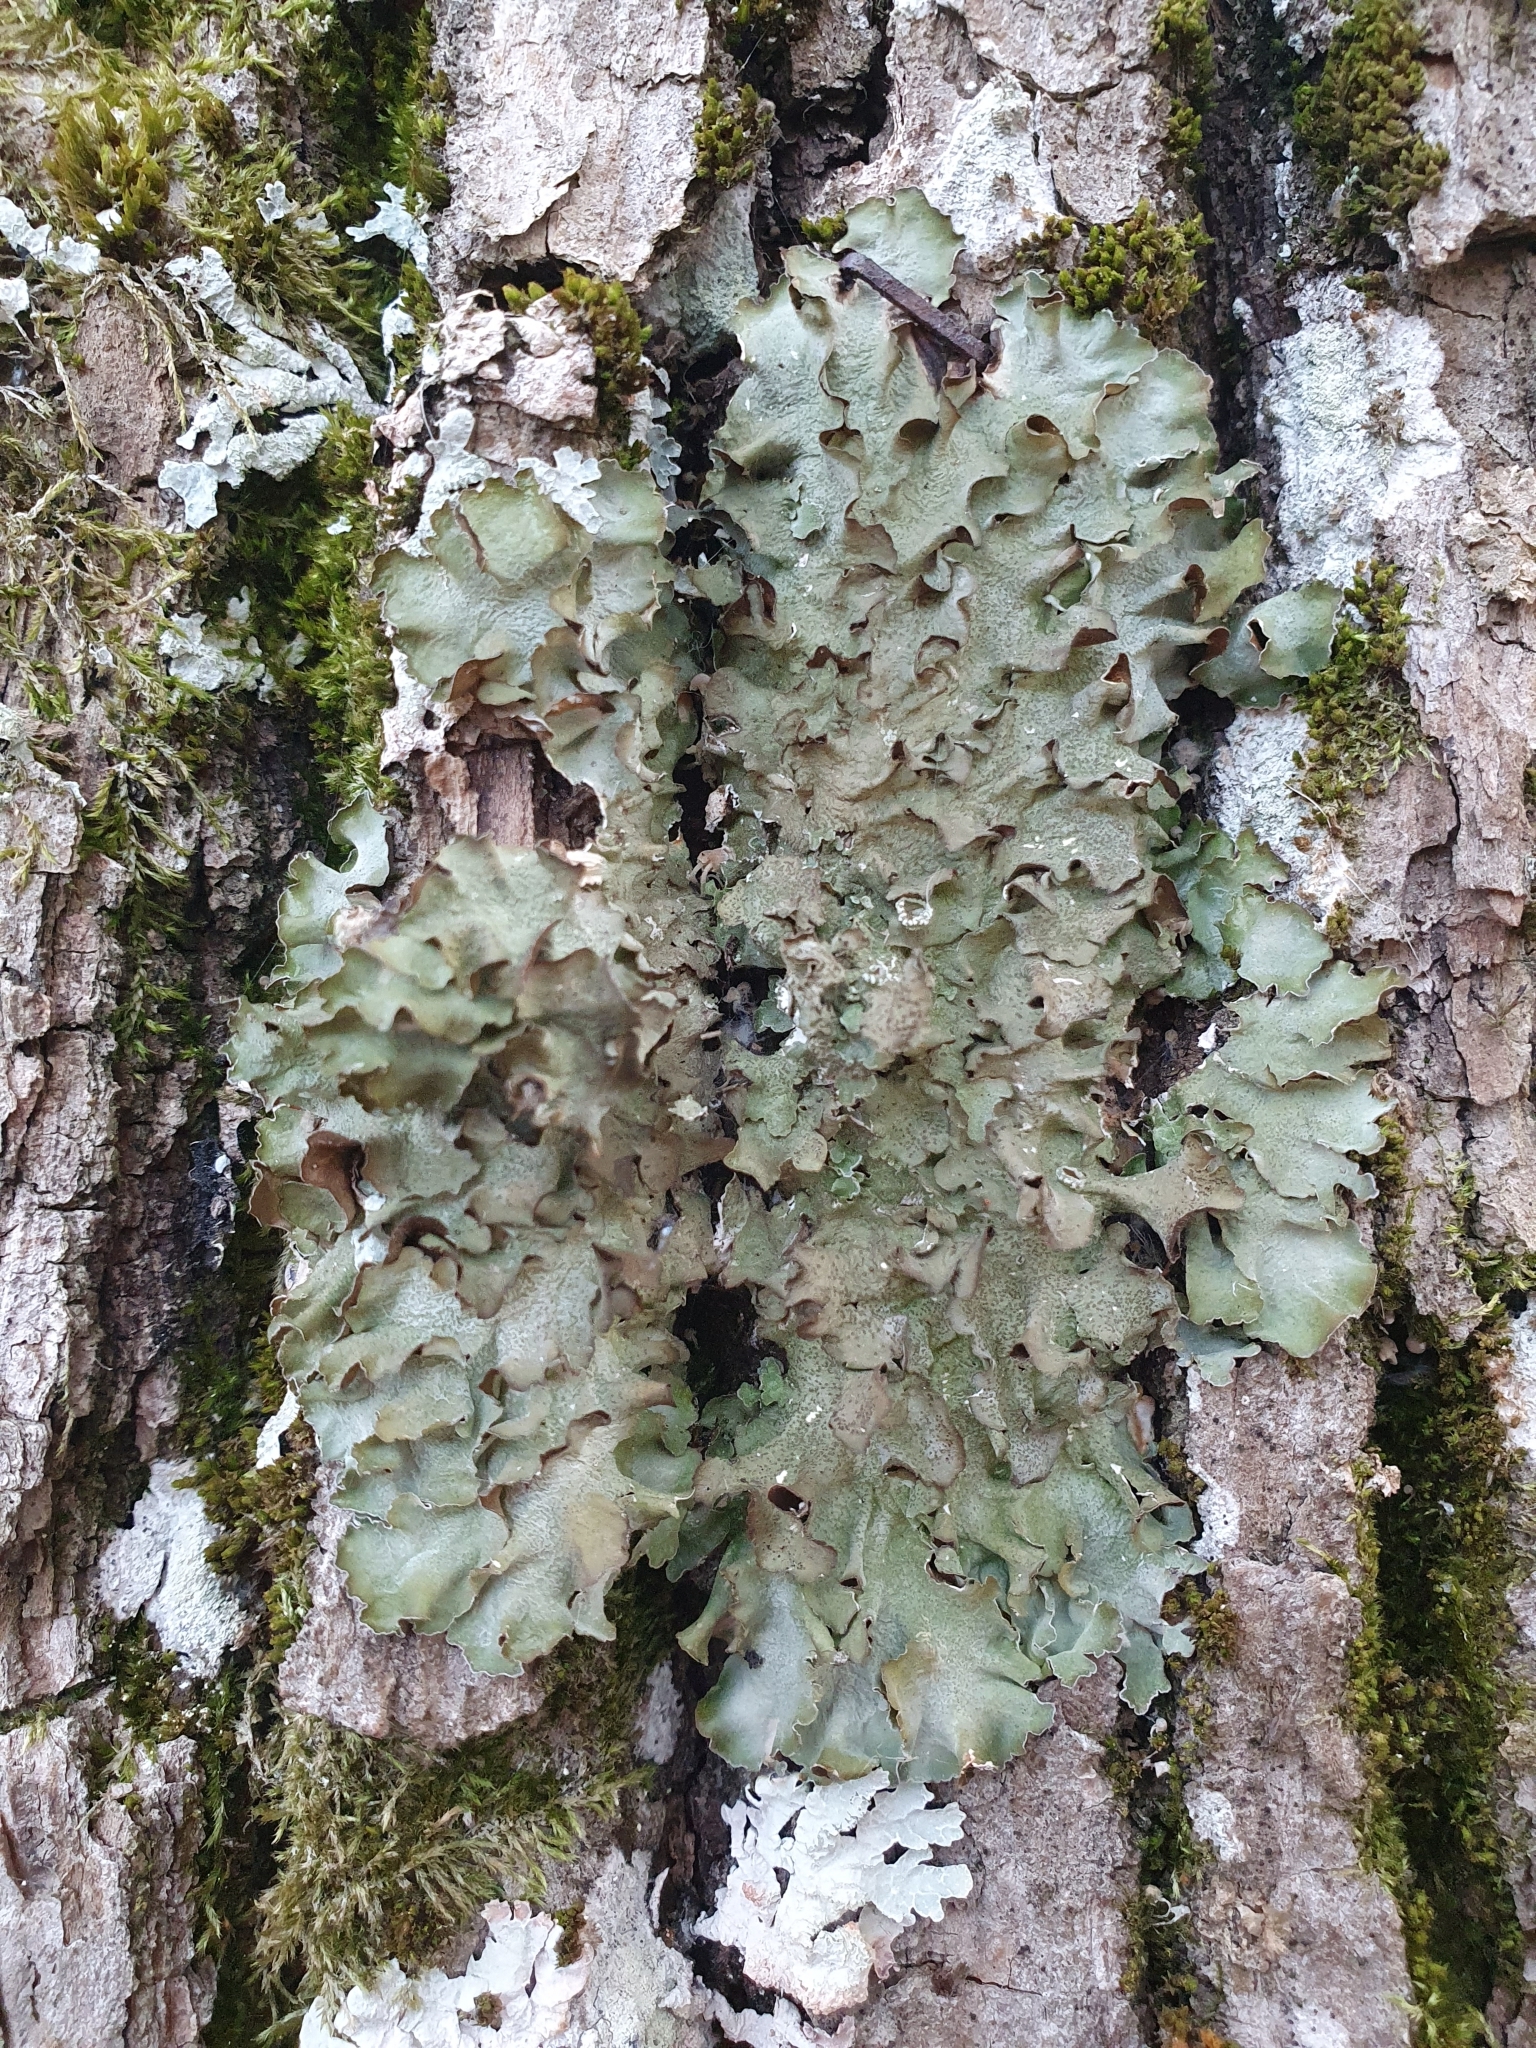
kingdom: Fungi
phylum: Ascomycota
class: Lecanoromycetes
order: Lecanorales
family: Parmeliaceae
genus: Pleurosticta
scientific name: Pleurosticta acetabulum
